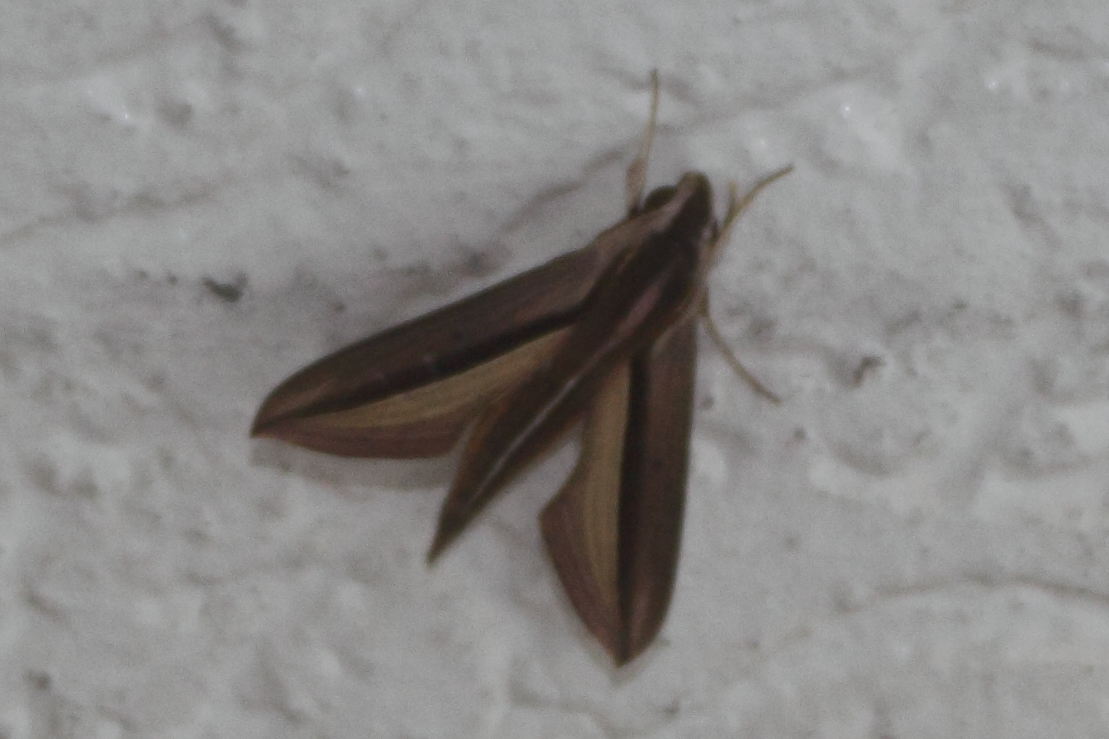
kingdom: Animalia
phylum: Arthropoda
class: Insecta
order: Lepidoptera
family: Sphingidae
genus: Theretra
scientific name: Theretra silhetensis
